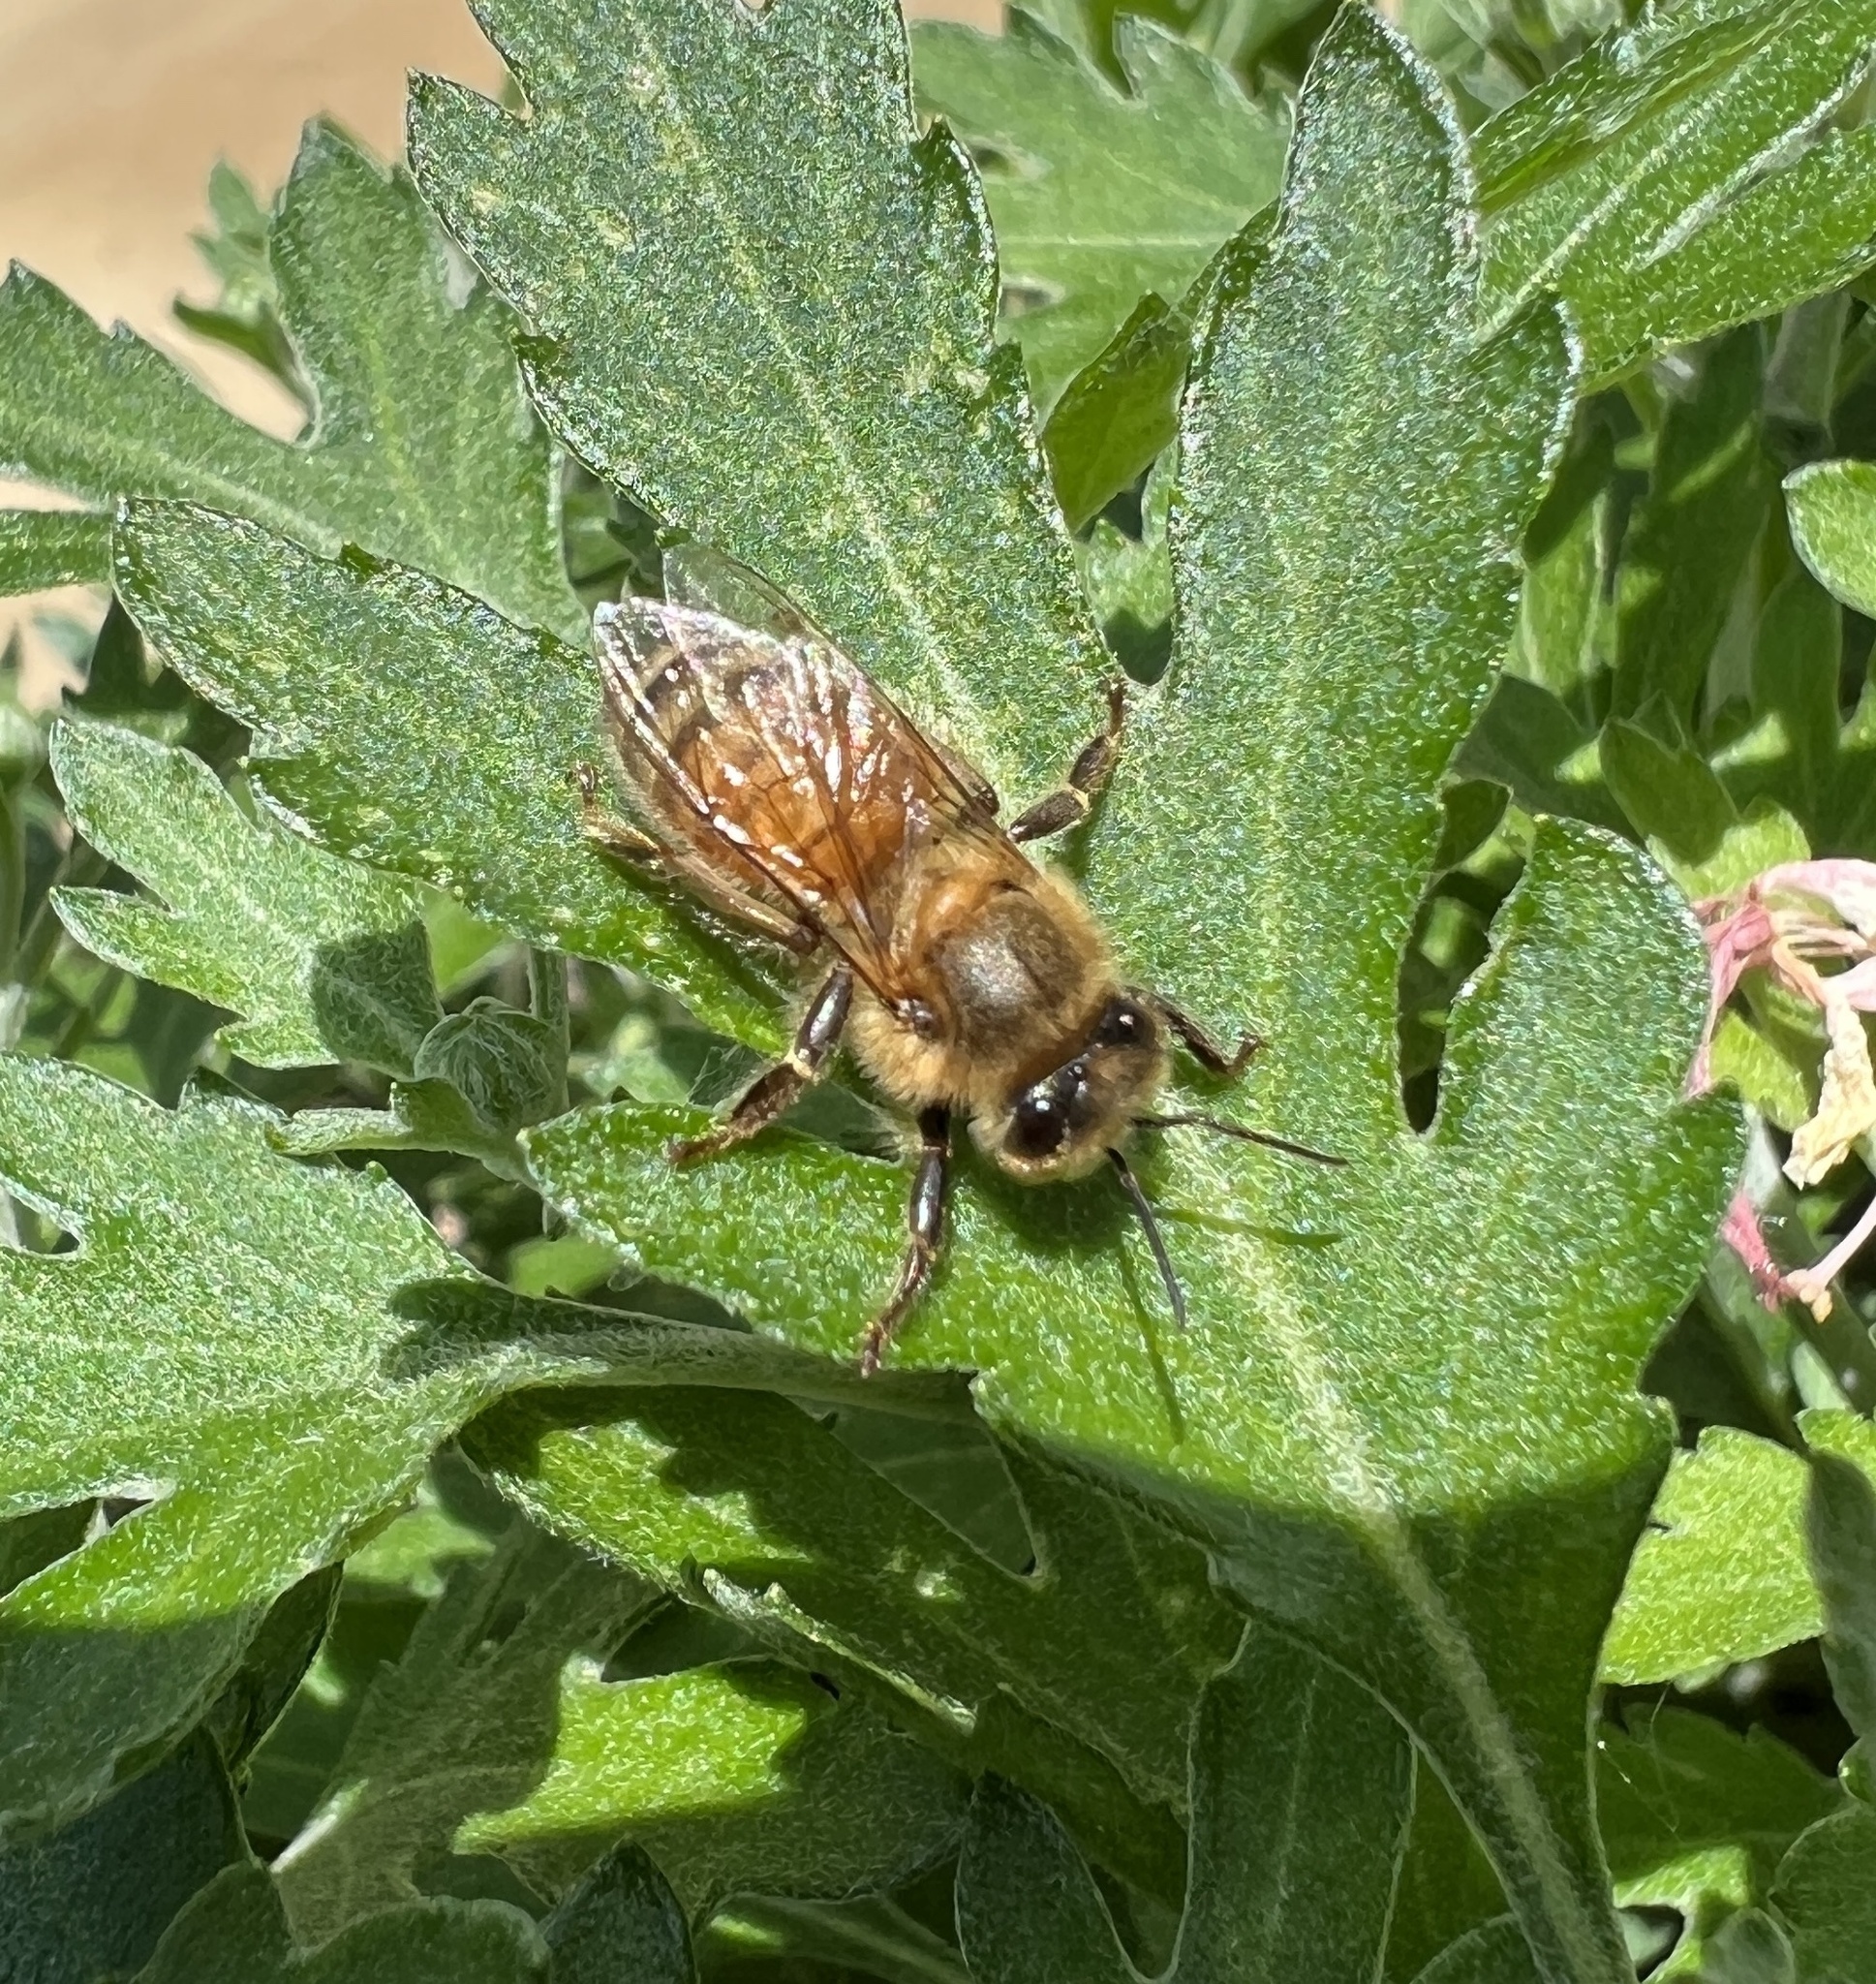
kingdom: Animalia
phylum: Arthropoda
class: Insecta
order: Hymenoptera
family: Apidae
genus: Apis
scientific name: Apis mellifera
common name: Honey bee
